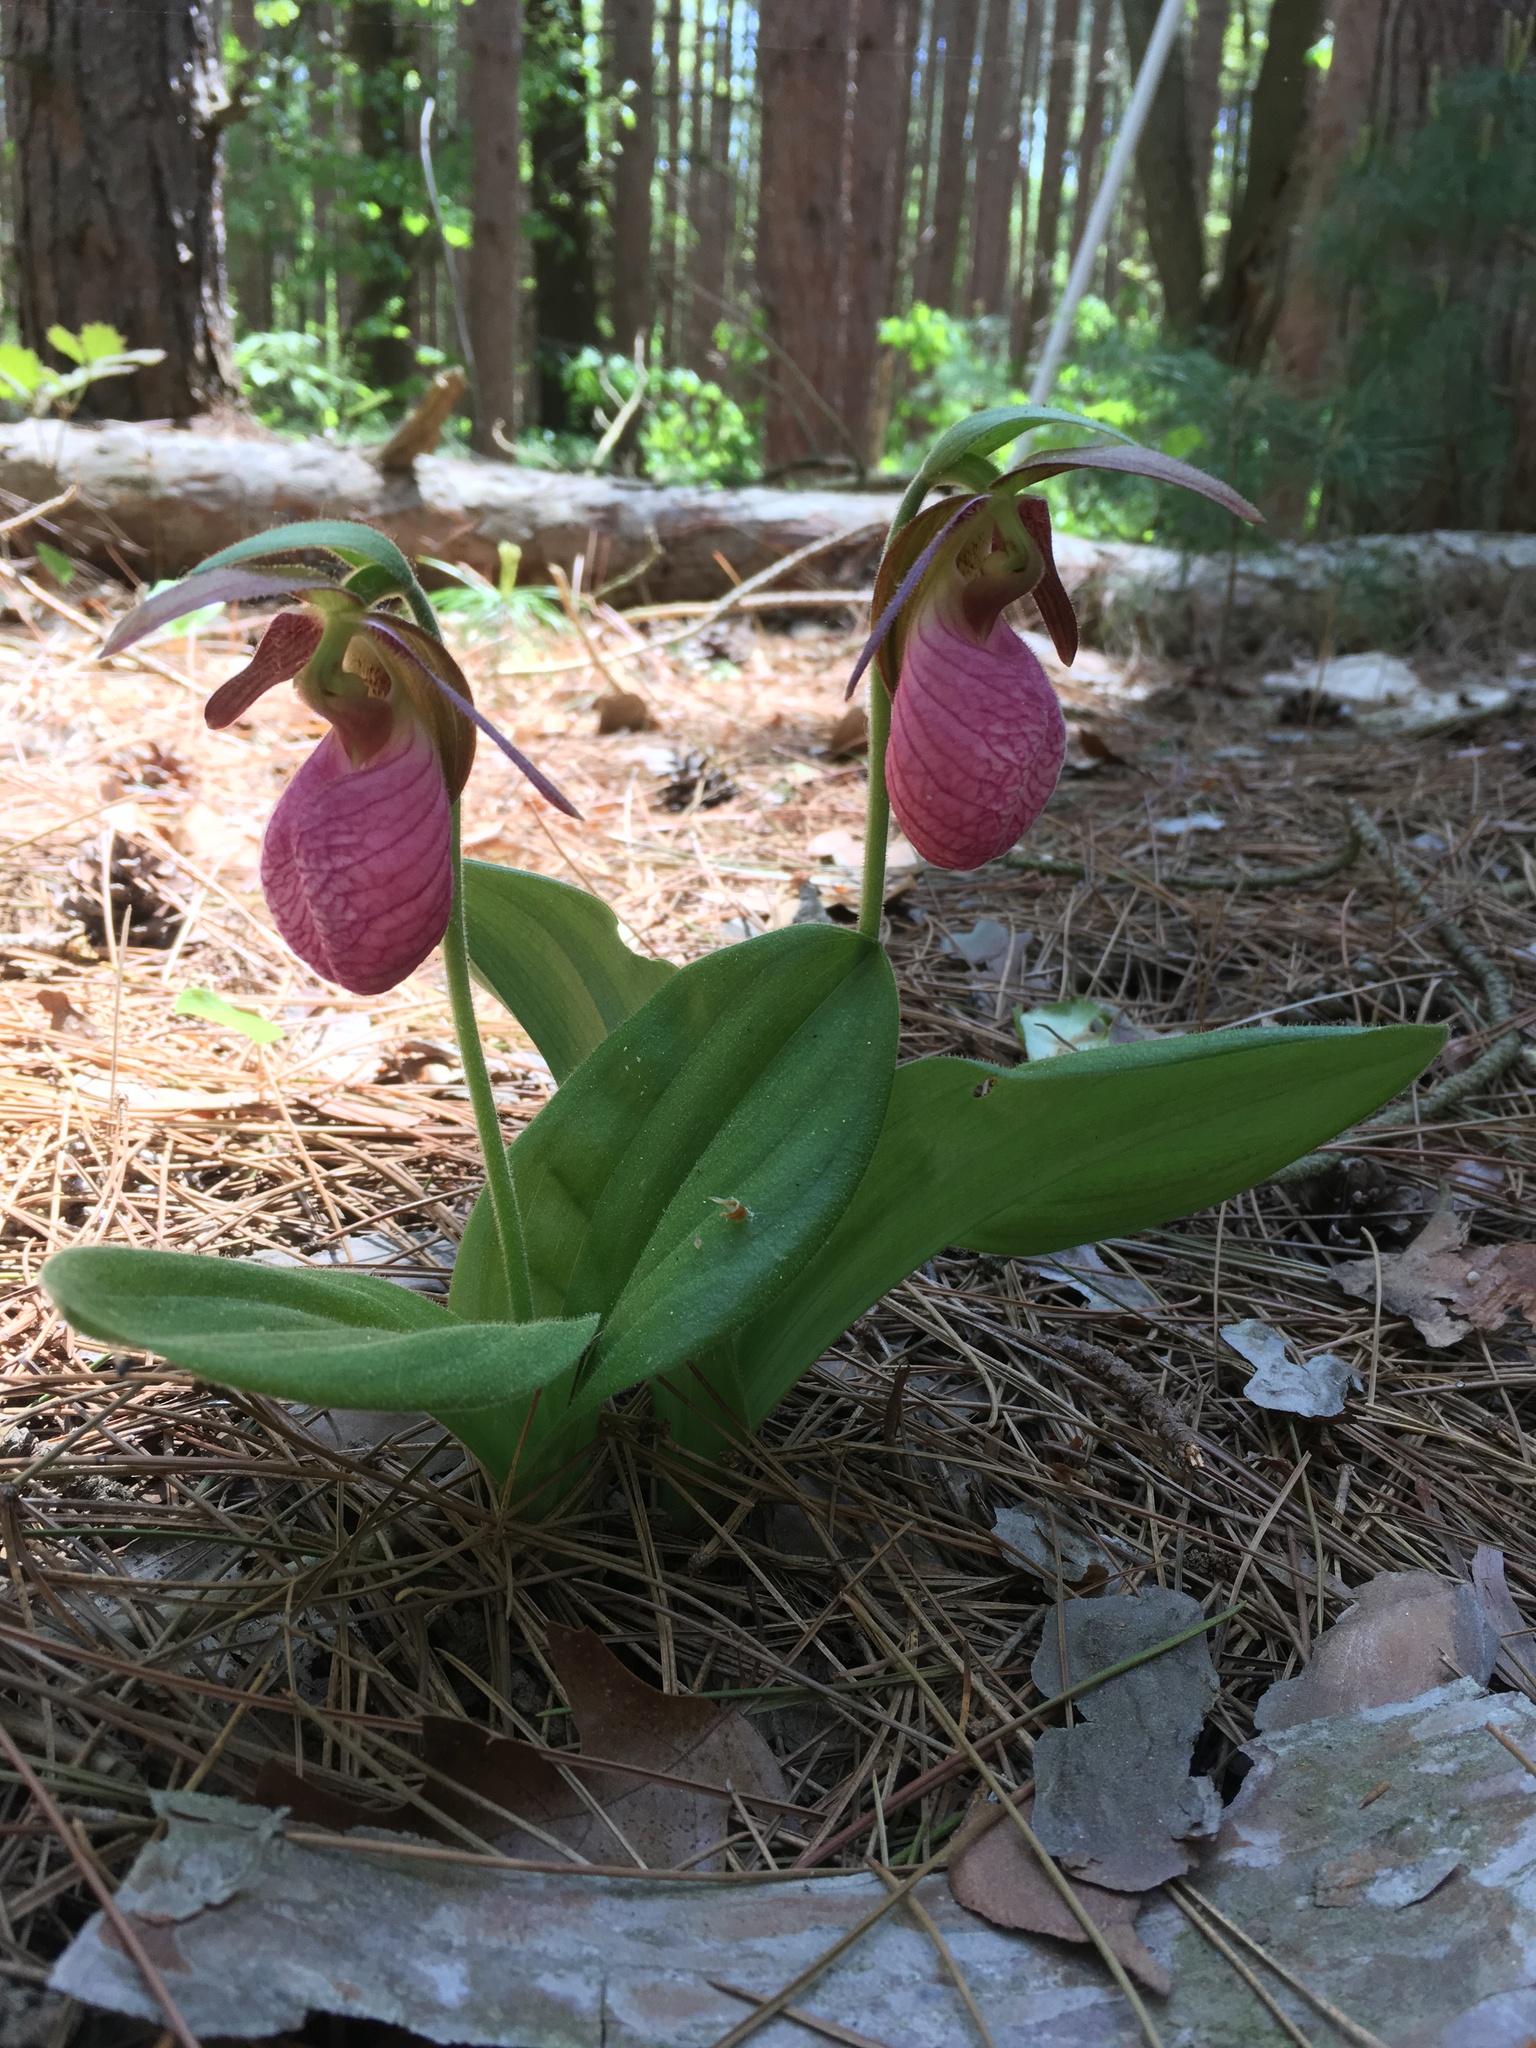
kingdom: Plantae
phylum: Tracheophyta
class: Liliopsida
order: Asparagales
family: Orchidaceae
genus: Cypripedium
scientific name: Cypripedium acaule
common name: Pink lady's-slipper
